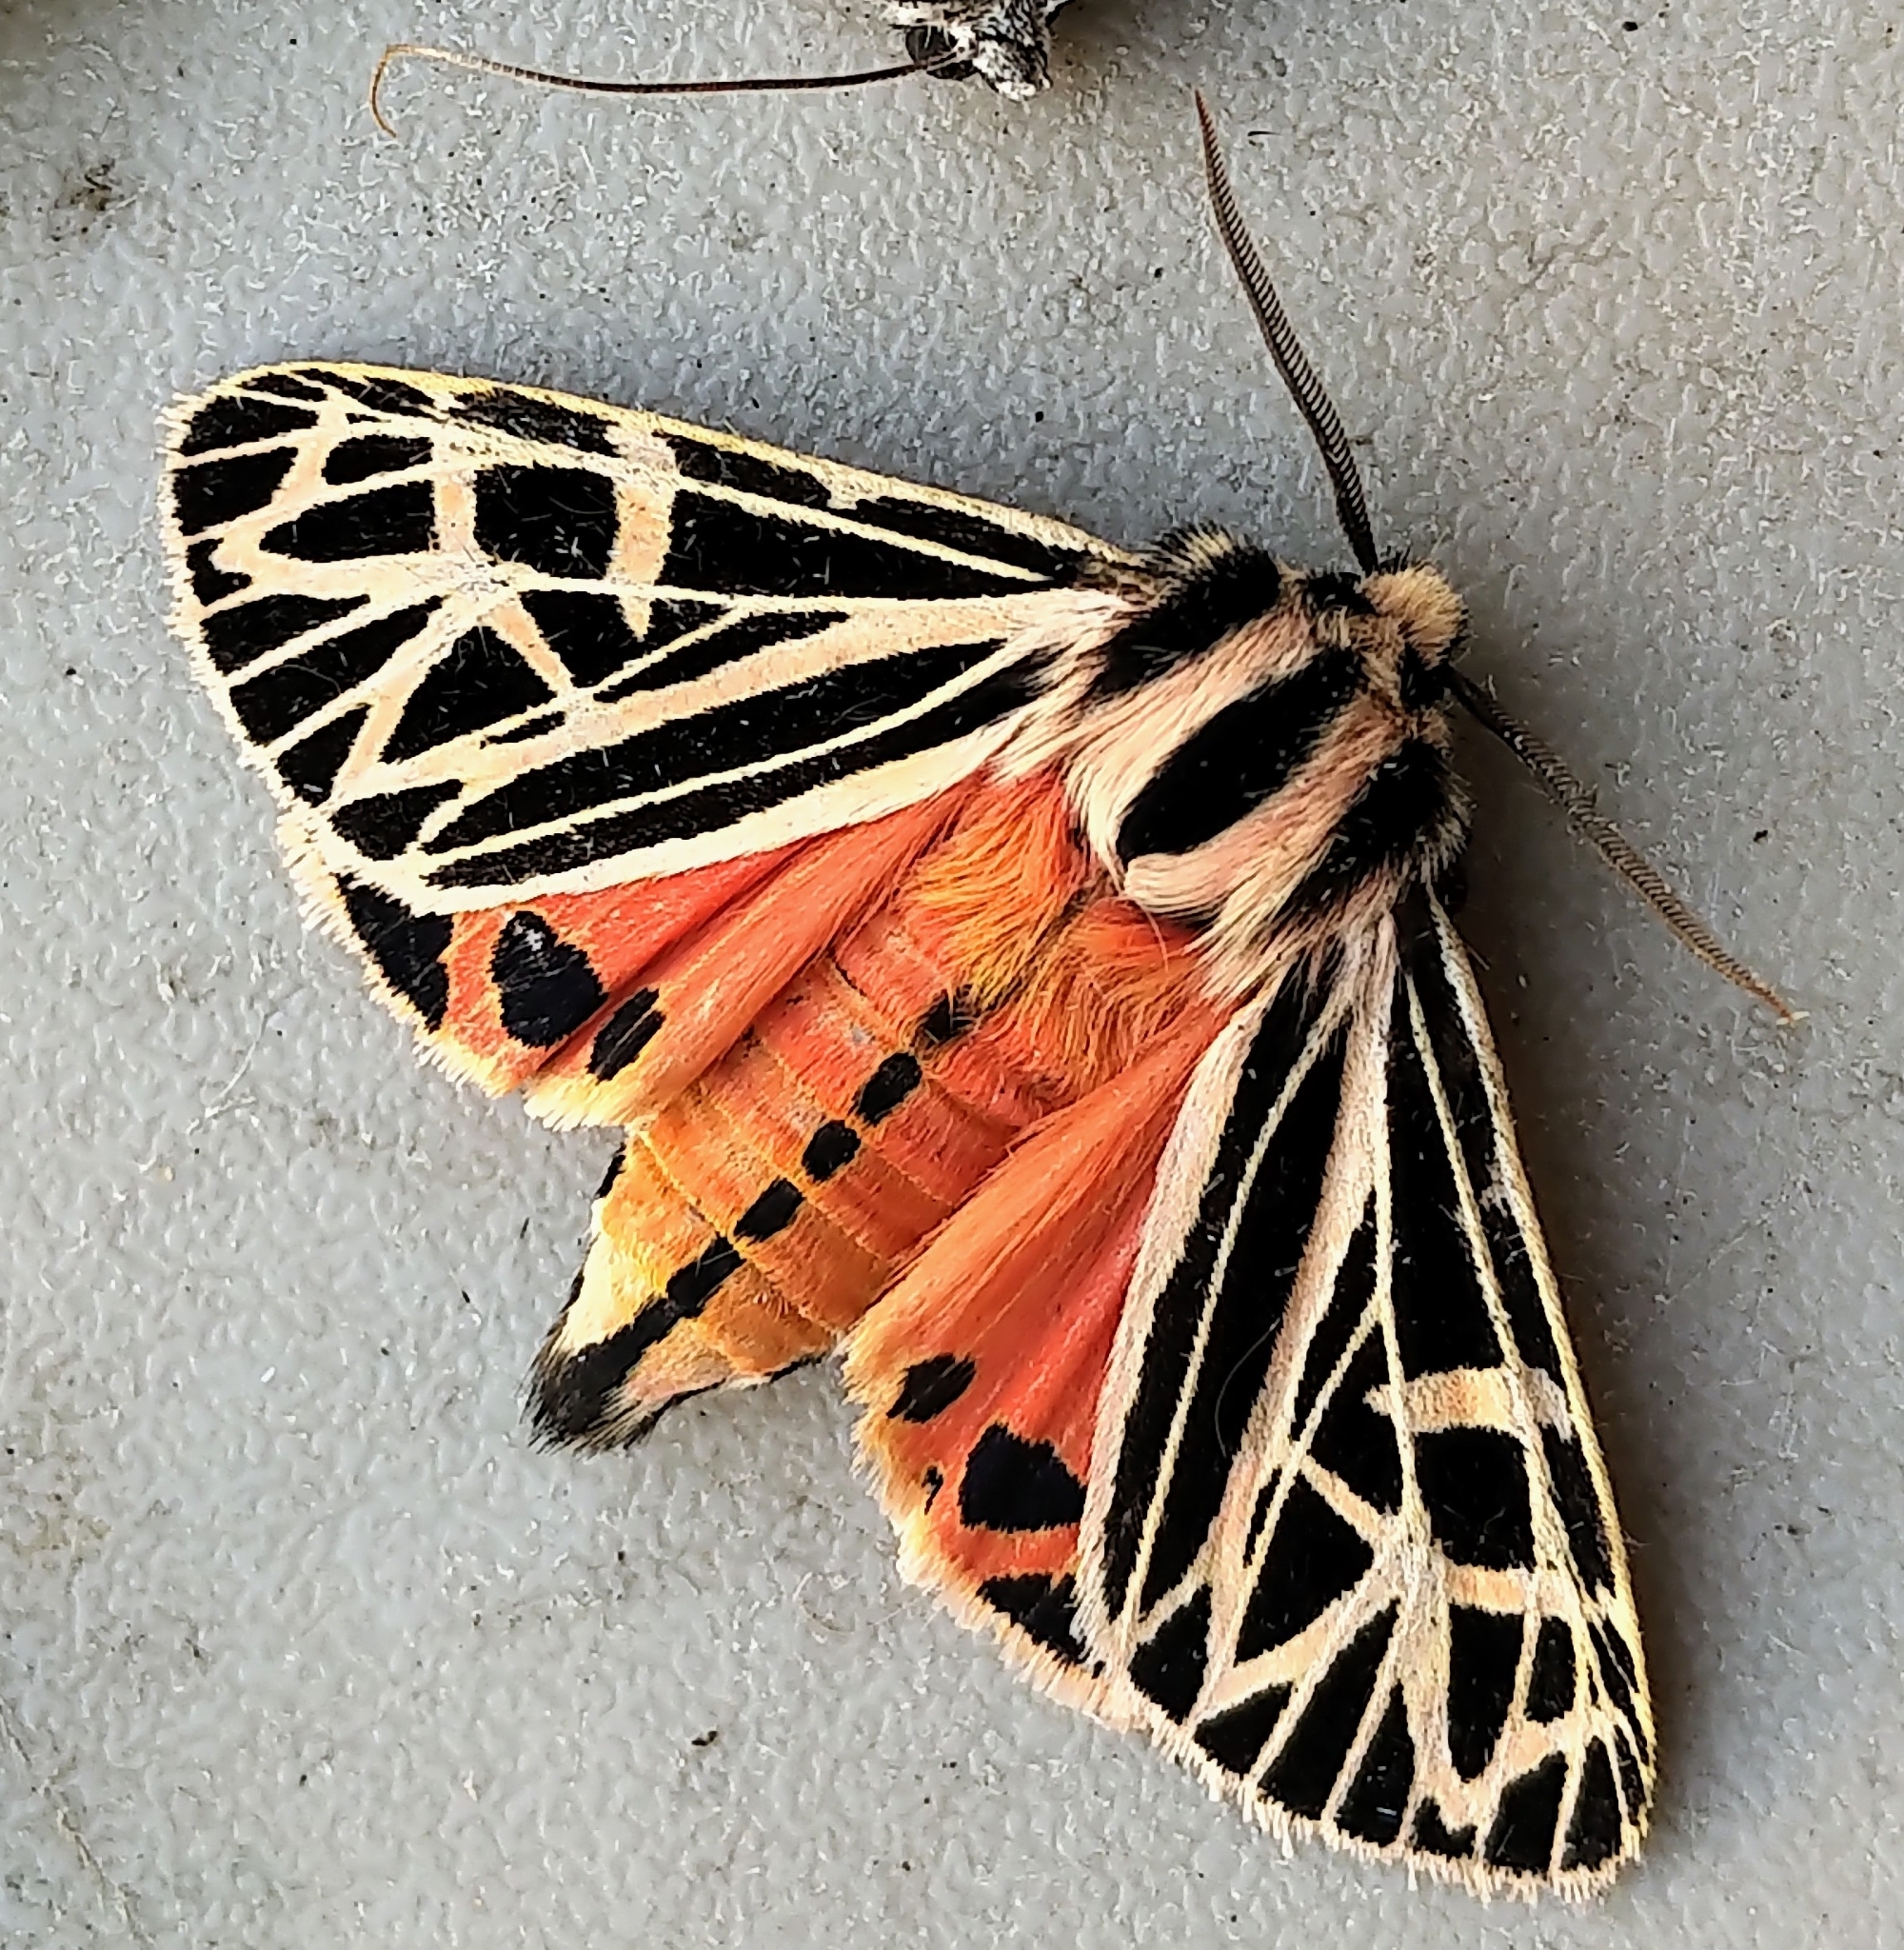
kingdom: Animalia
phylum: Arthropoda
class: Insecta
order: Lepidoptera
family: Erebidae
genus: Grammia
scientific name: Grammia parthenice
